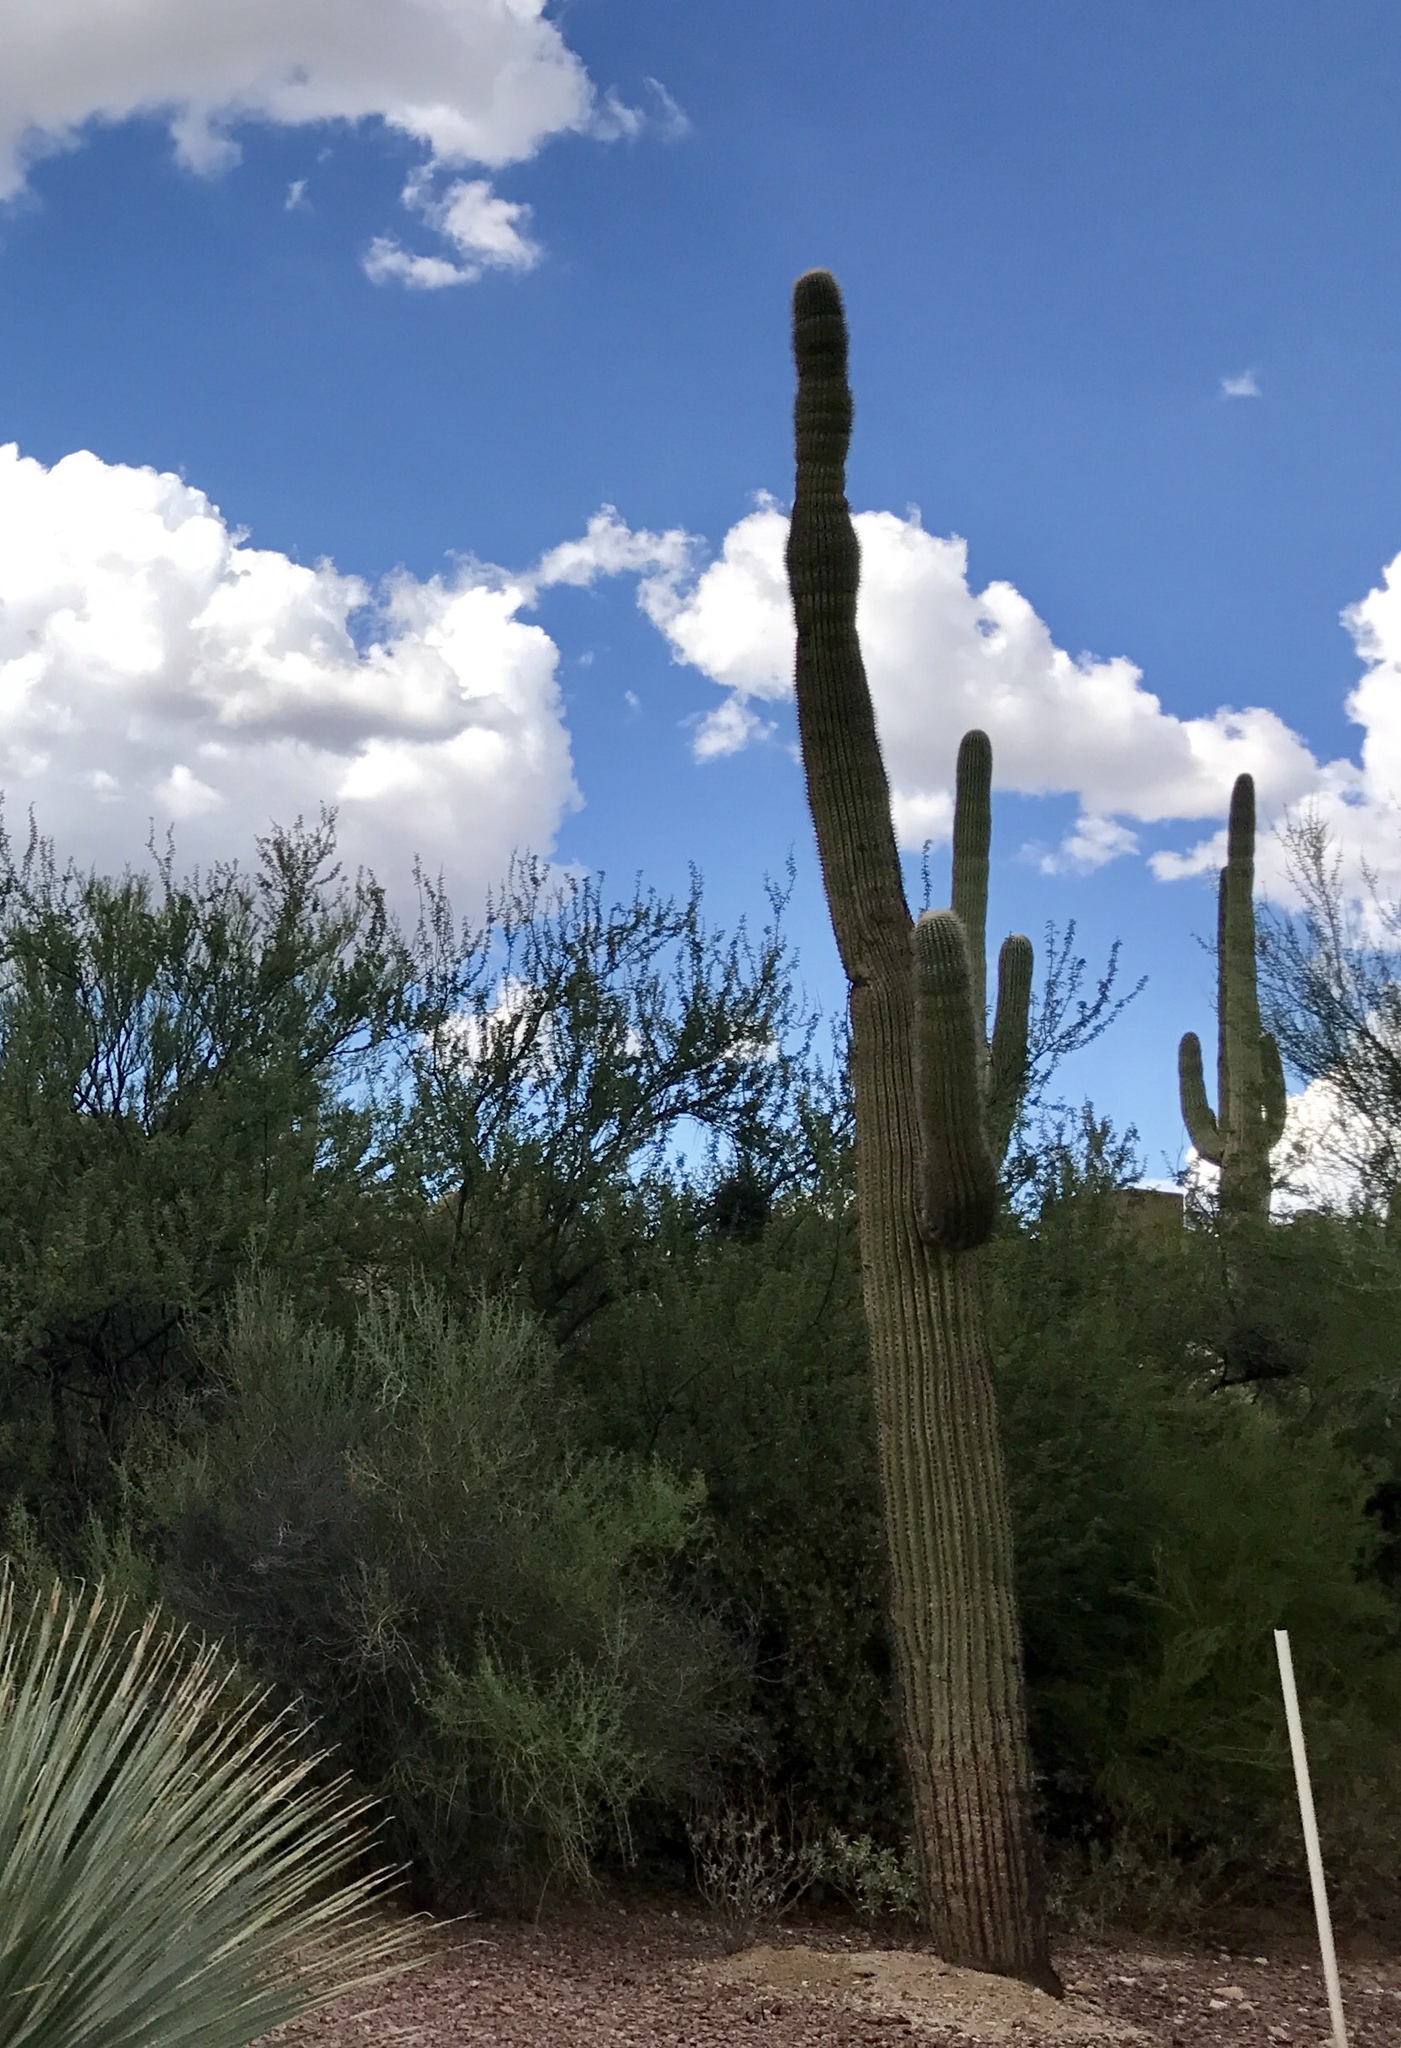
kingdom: Plantae
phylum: Tracheophyta
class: Magnoliopsida
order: Caryophyllales
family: Cactaceae
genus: Carnegiea
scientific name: Carnegiea gigantea
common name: Saguaro
